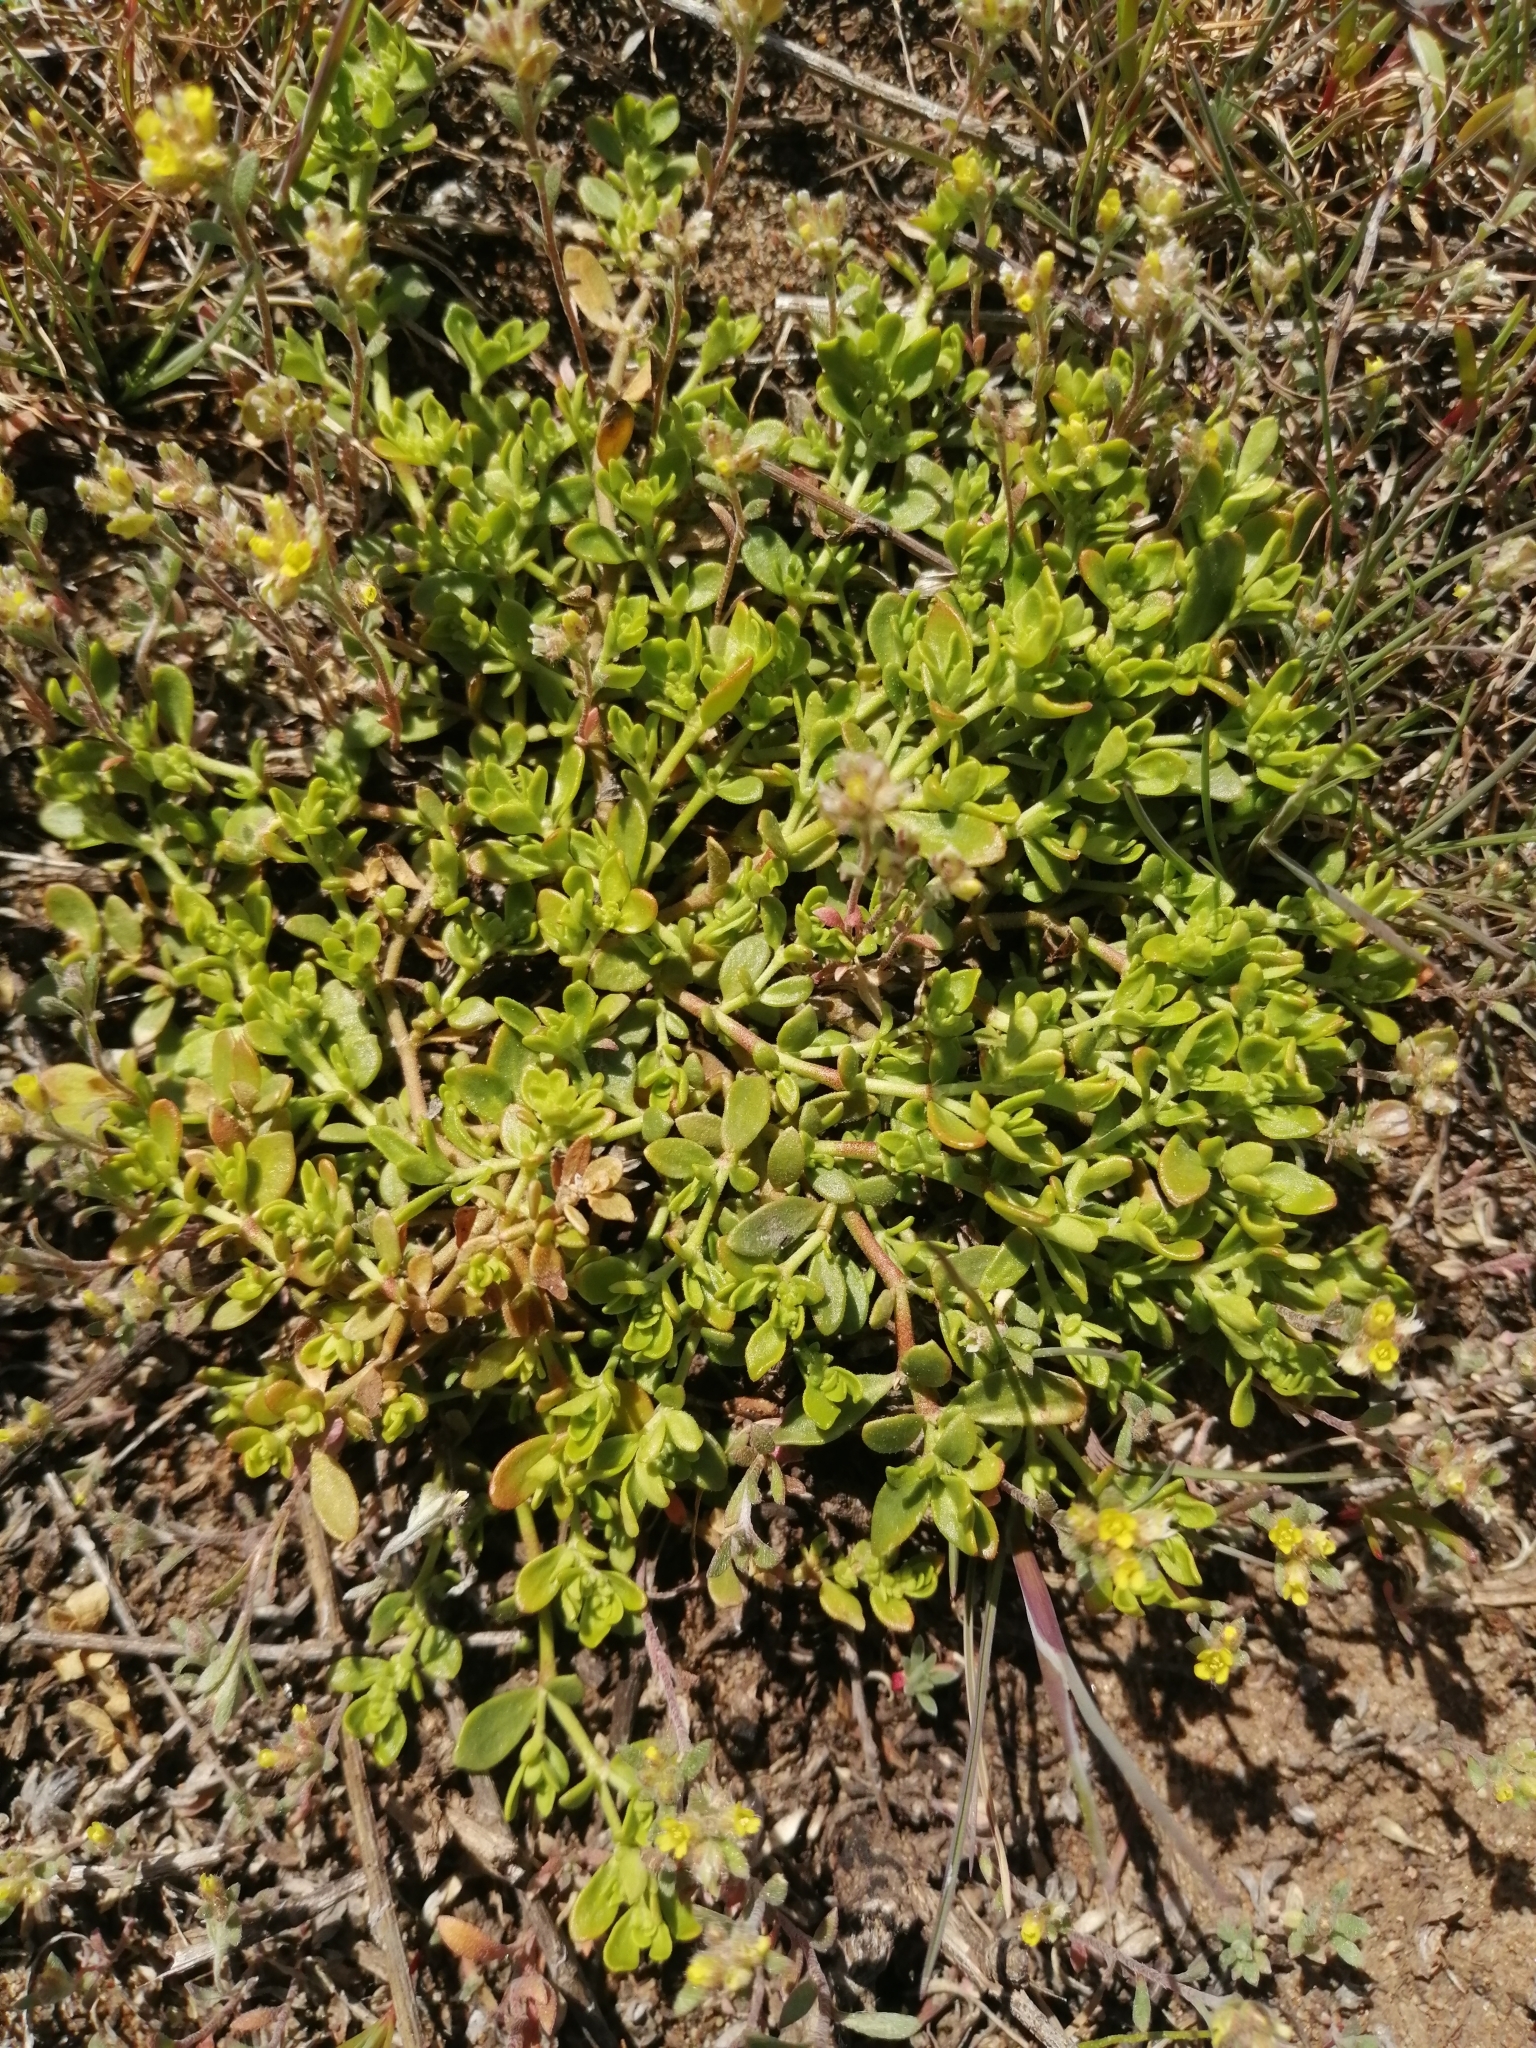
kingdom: Plantae
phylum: Tracheophyta
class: Magnoliopsida
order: Caryophyllales
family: Caryophyllaceae
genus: Herniaria
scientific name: Herniaria glabra
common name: Smooth rupturewort
